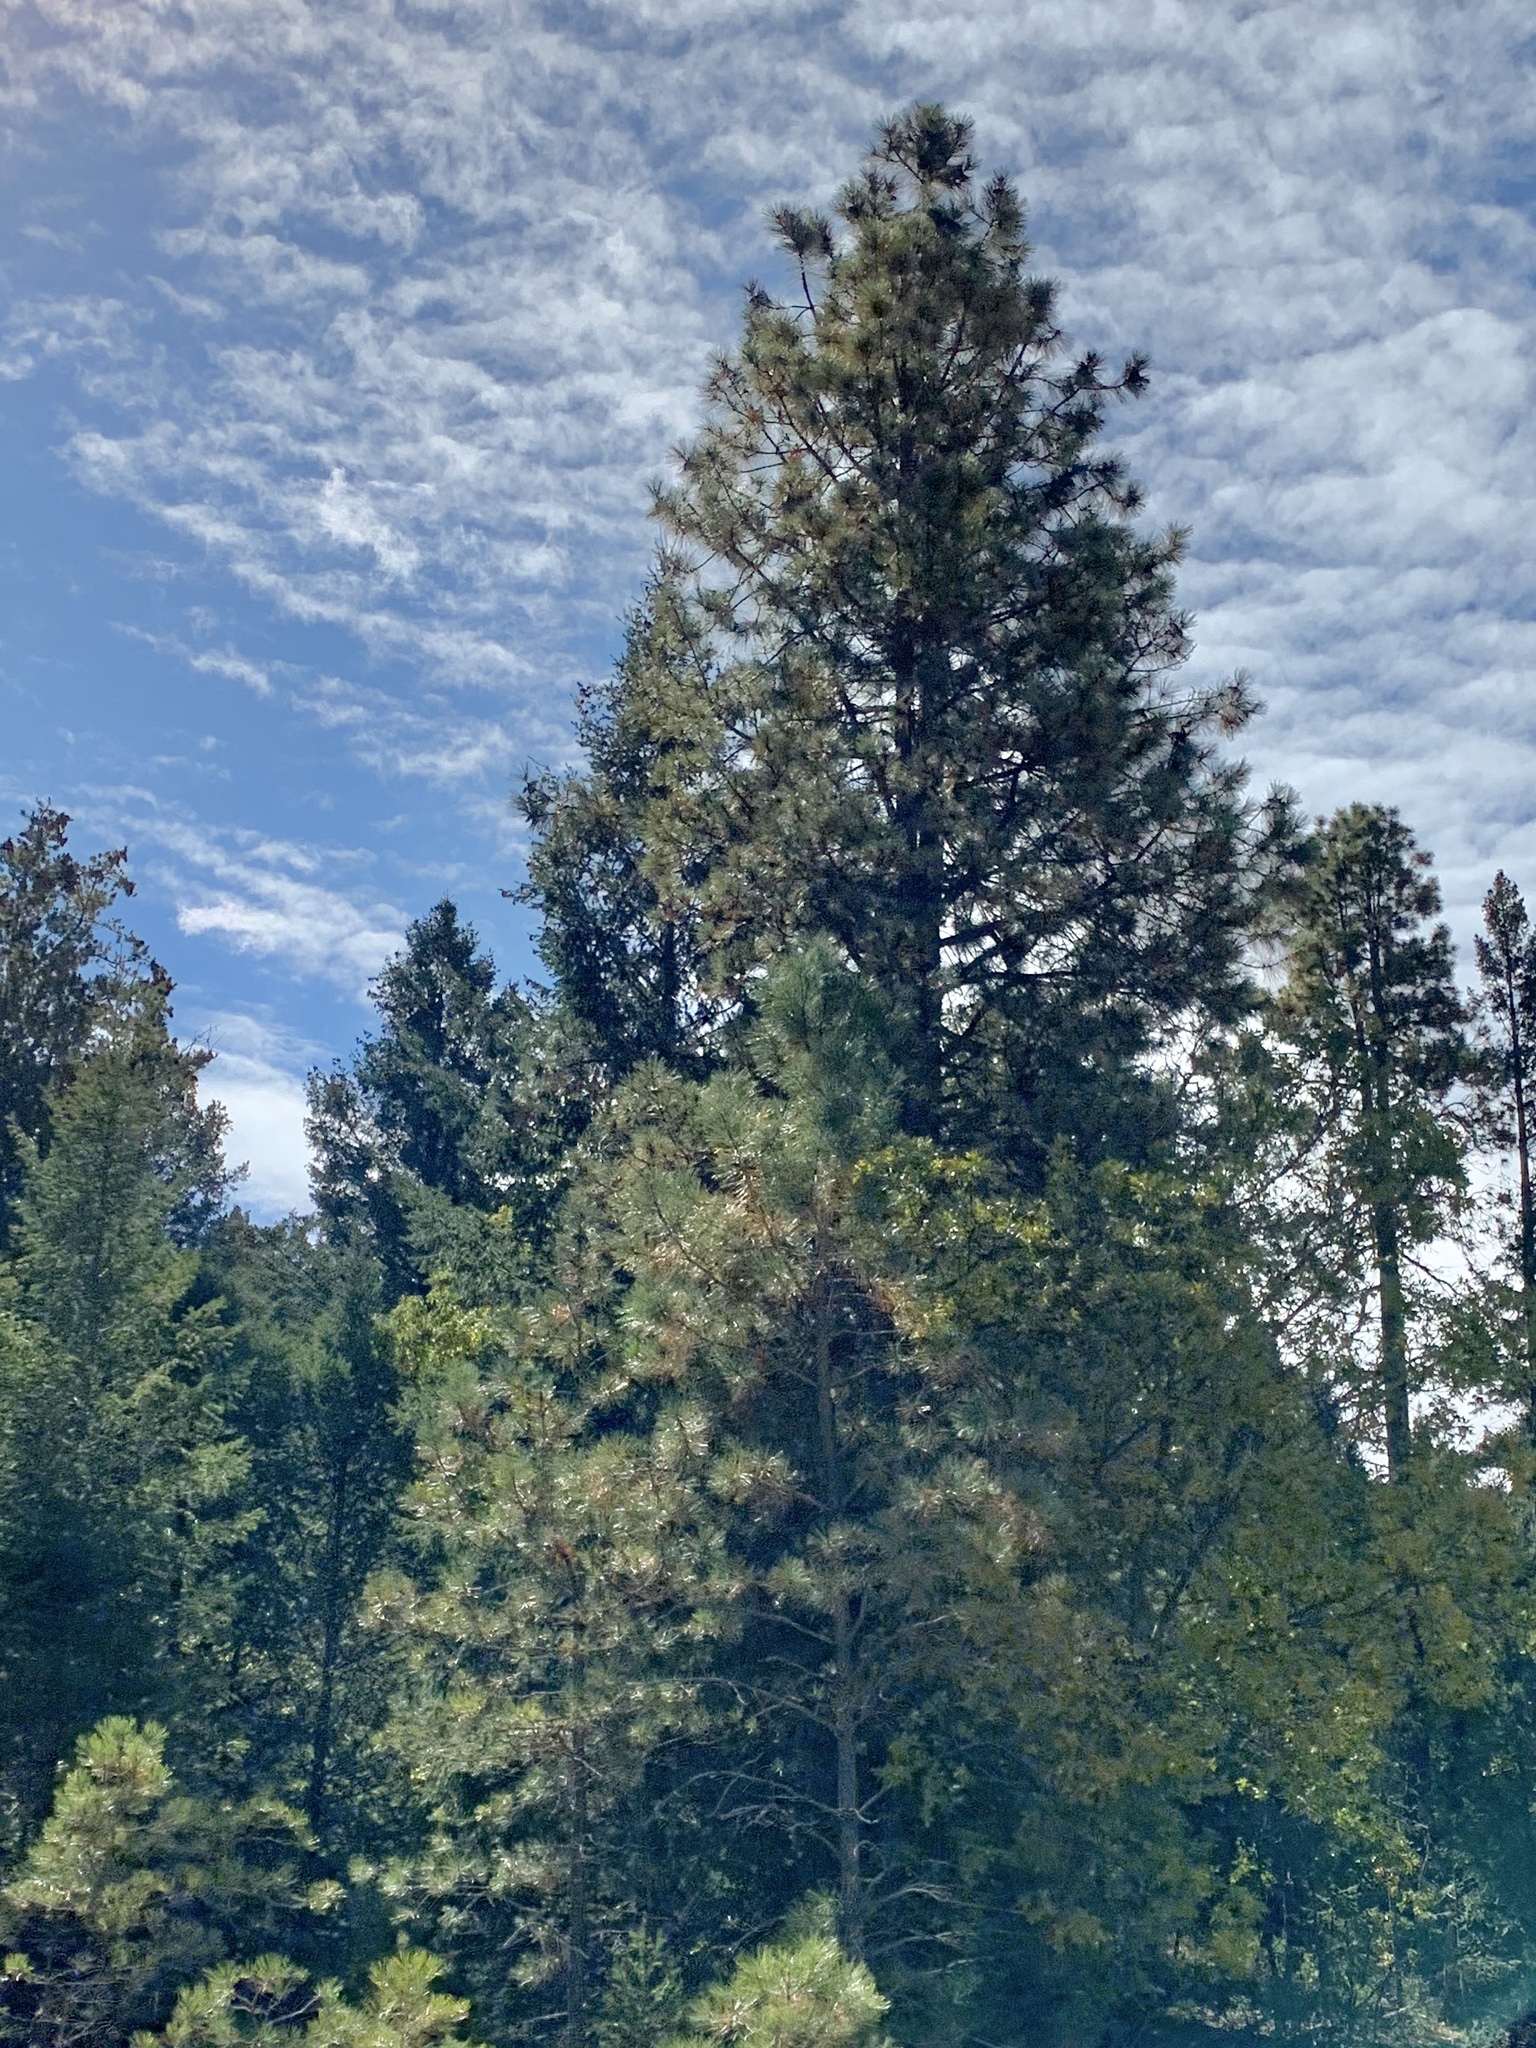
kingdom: Plantae
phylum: Tracheophyta
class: Pinopsida
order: Pinales
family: Pinaceae
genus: Pinus
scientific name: Pinus ponderosa
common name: Western yellow-pine
